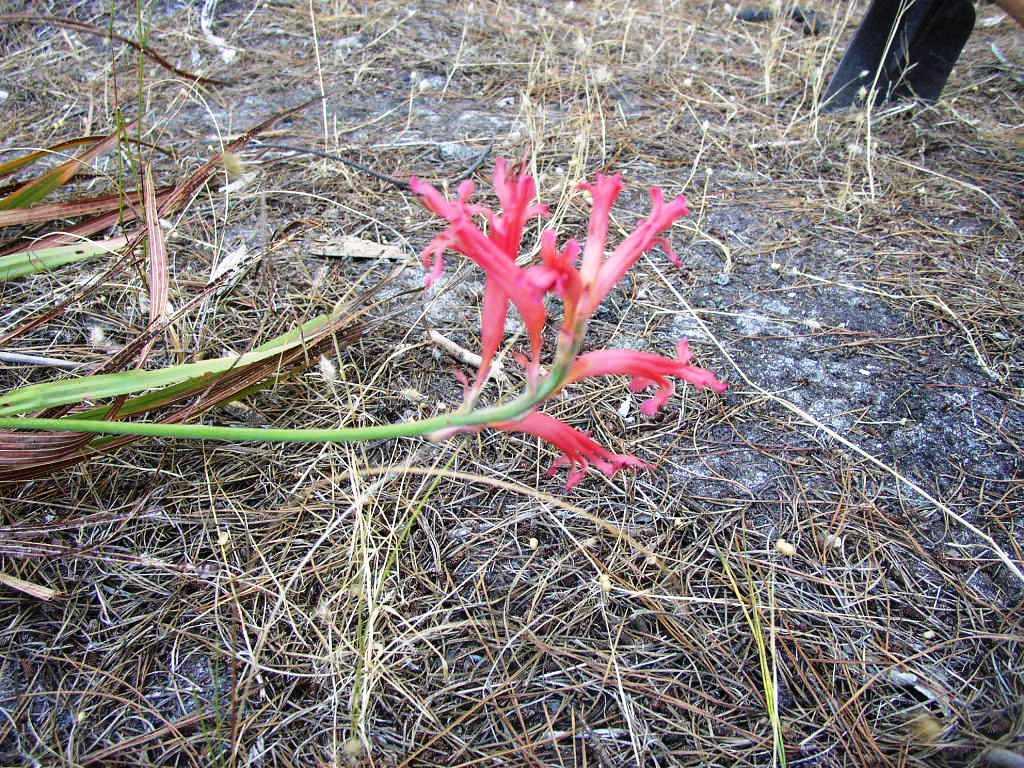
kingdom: Plantae
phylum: Tracheophyta
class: Liliopsida
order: Asparagales
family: Iridaceae
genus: Tritoniopsis
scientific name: Tritoniopsis antholyza
